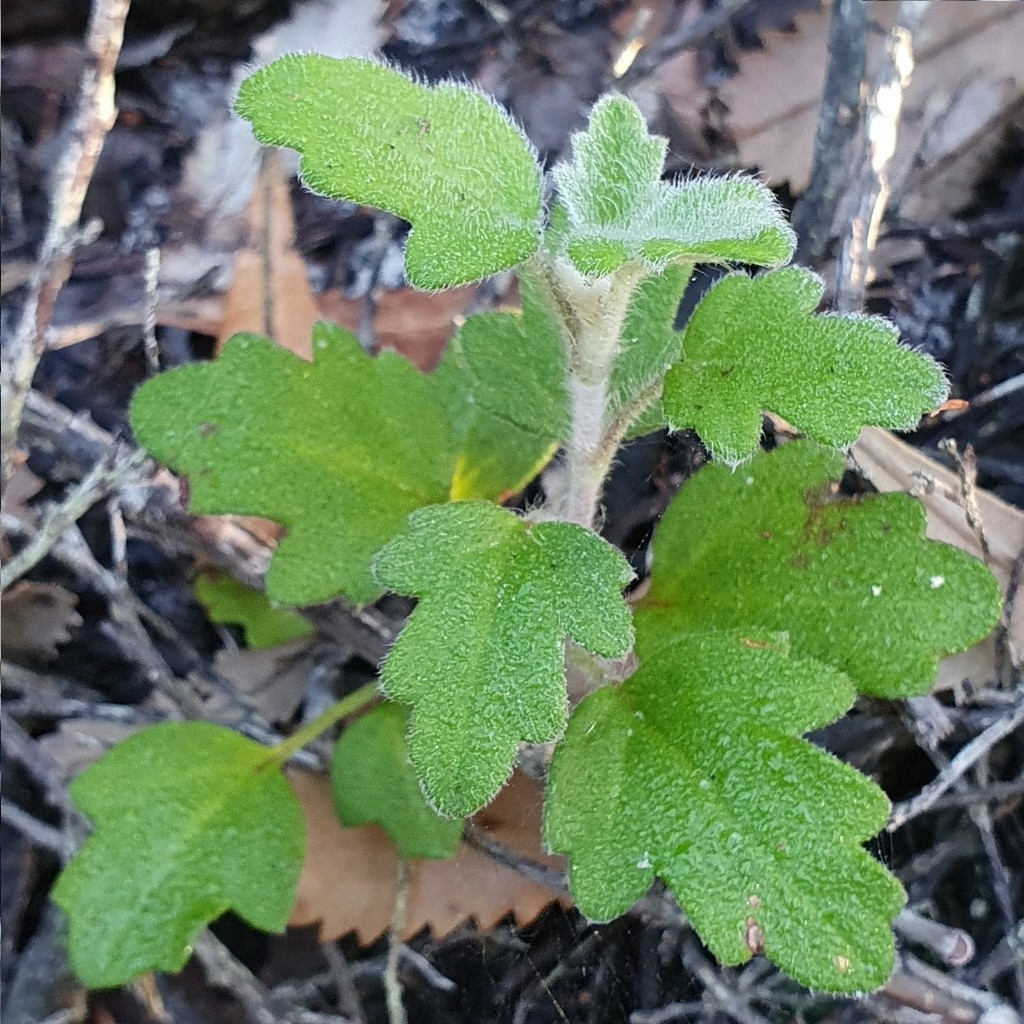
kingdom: Plantae
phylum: Tracheophyta
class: Magnoliopsida
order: Apiales
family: Apiaceae
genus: Xanthosia
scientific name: Xanthosia pilosa
